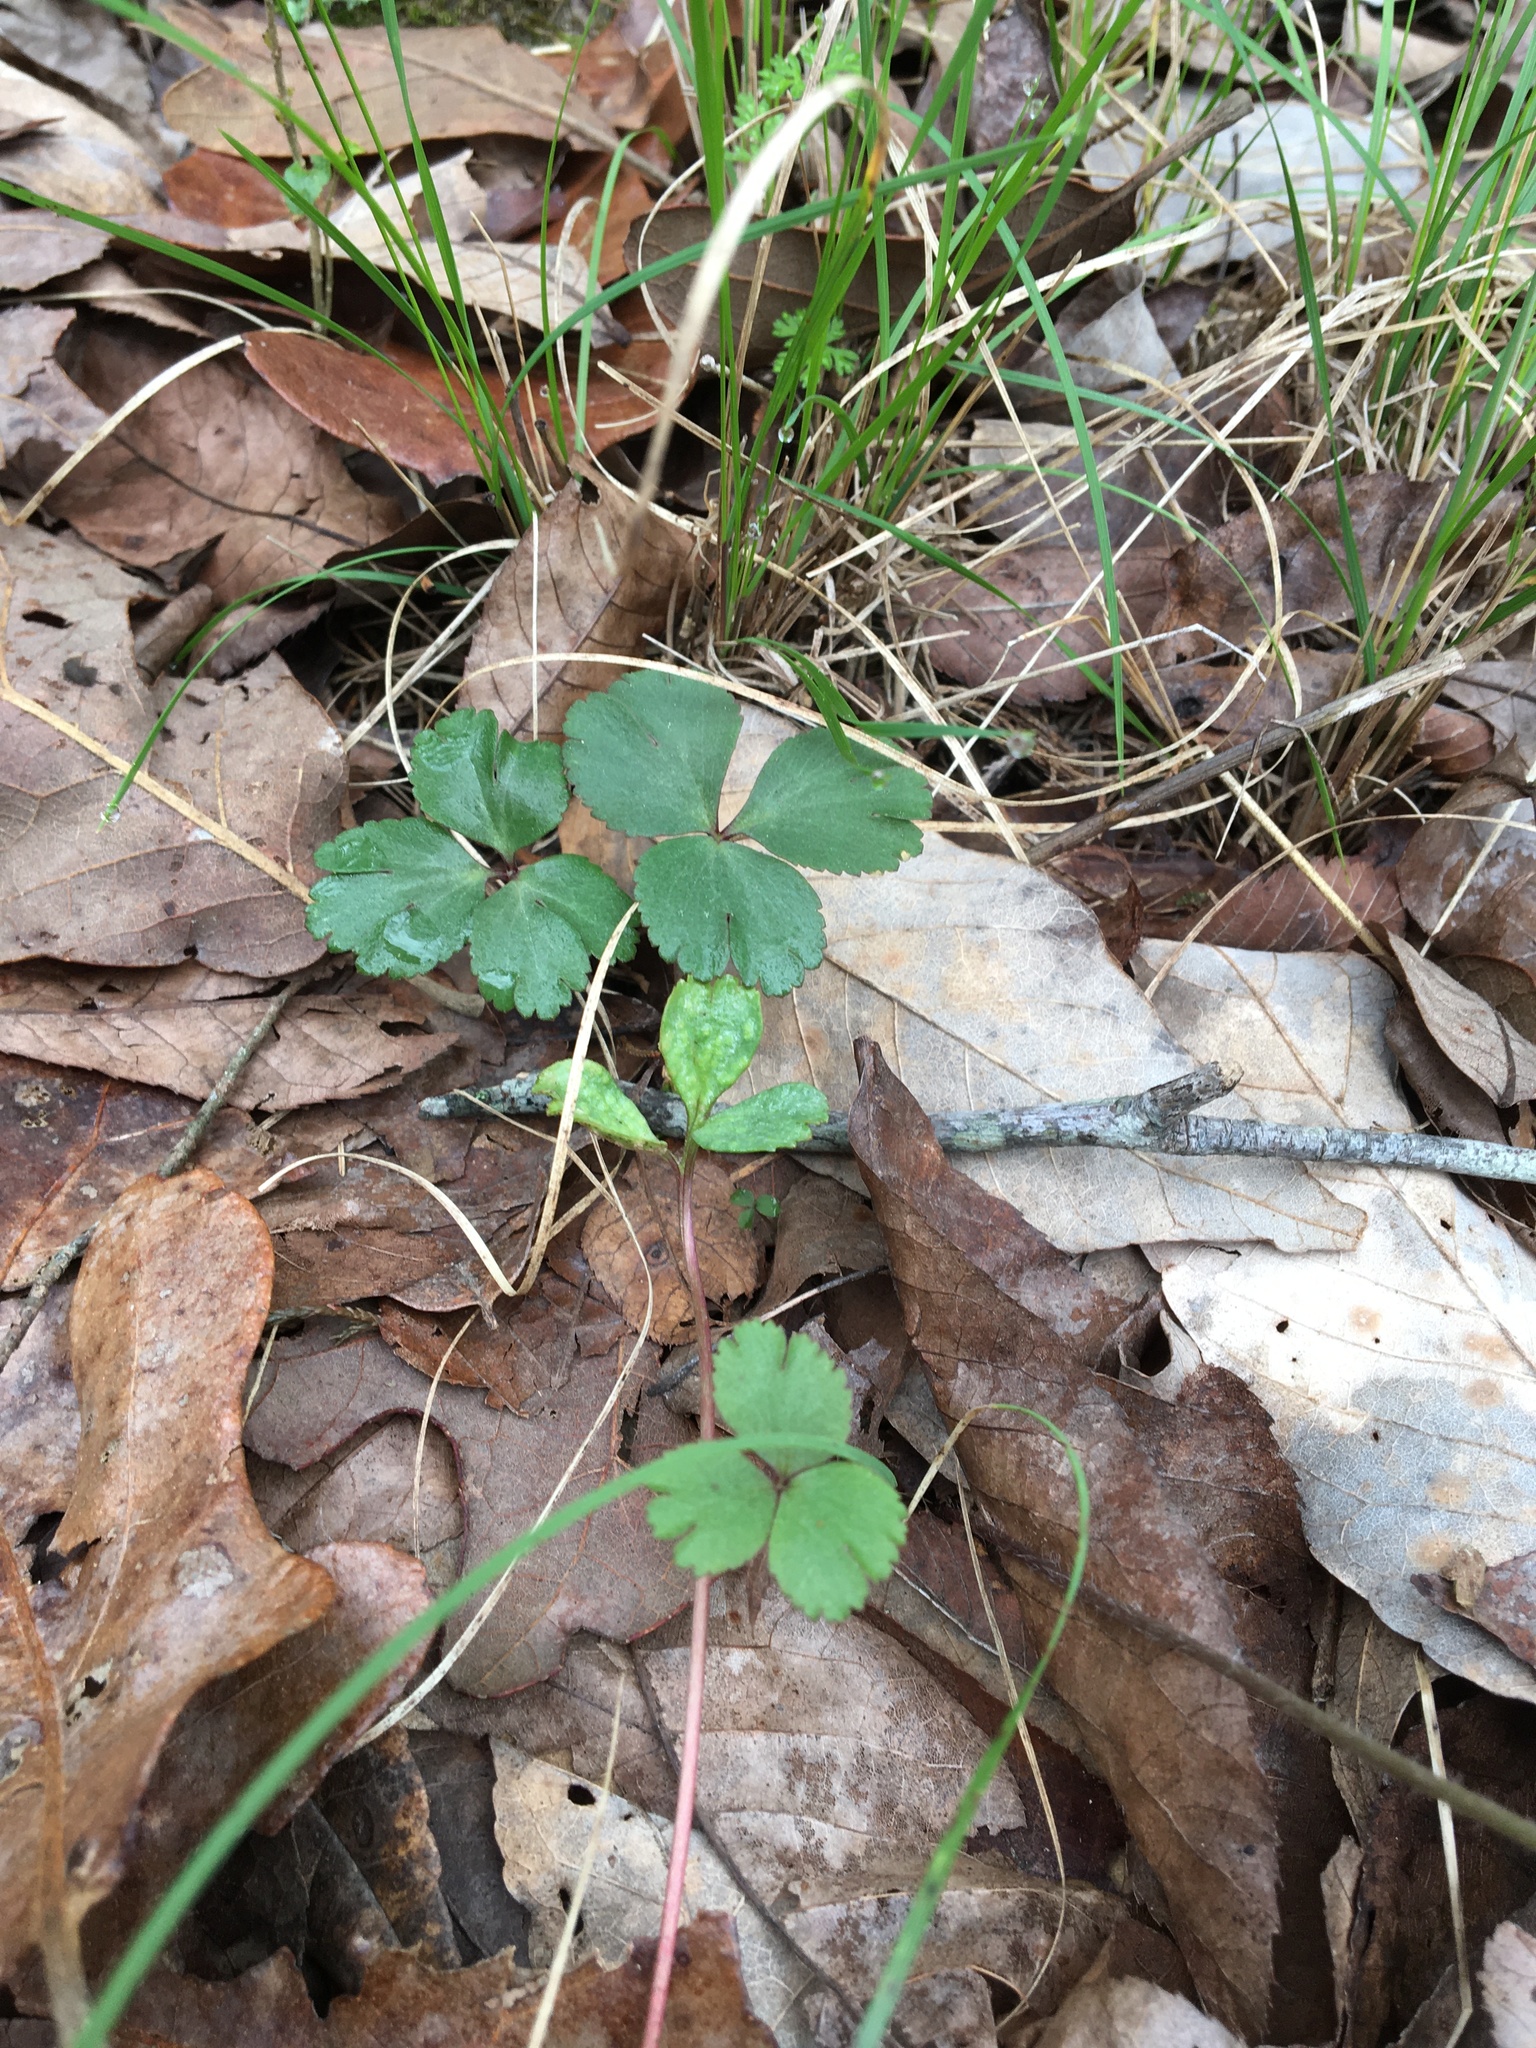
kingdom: Plantae
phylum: Tracheophyta
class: Magnoliopsida
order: Ranunculales
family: Ranunculaceae
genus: Anemone
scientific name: Anemone berlandieri
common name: Ten-petal anemone
